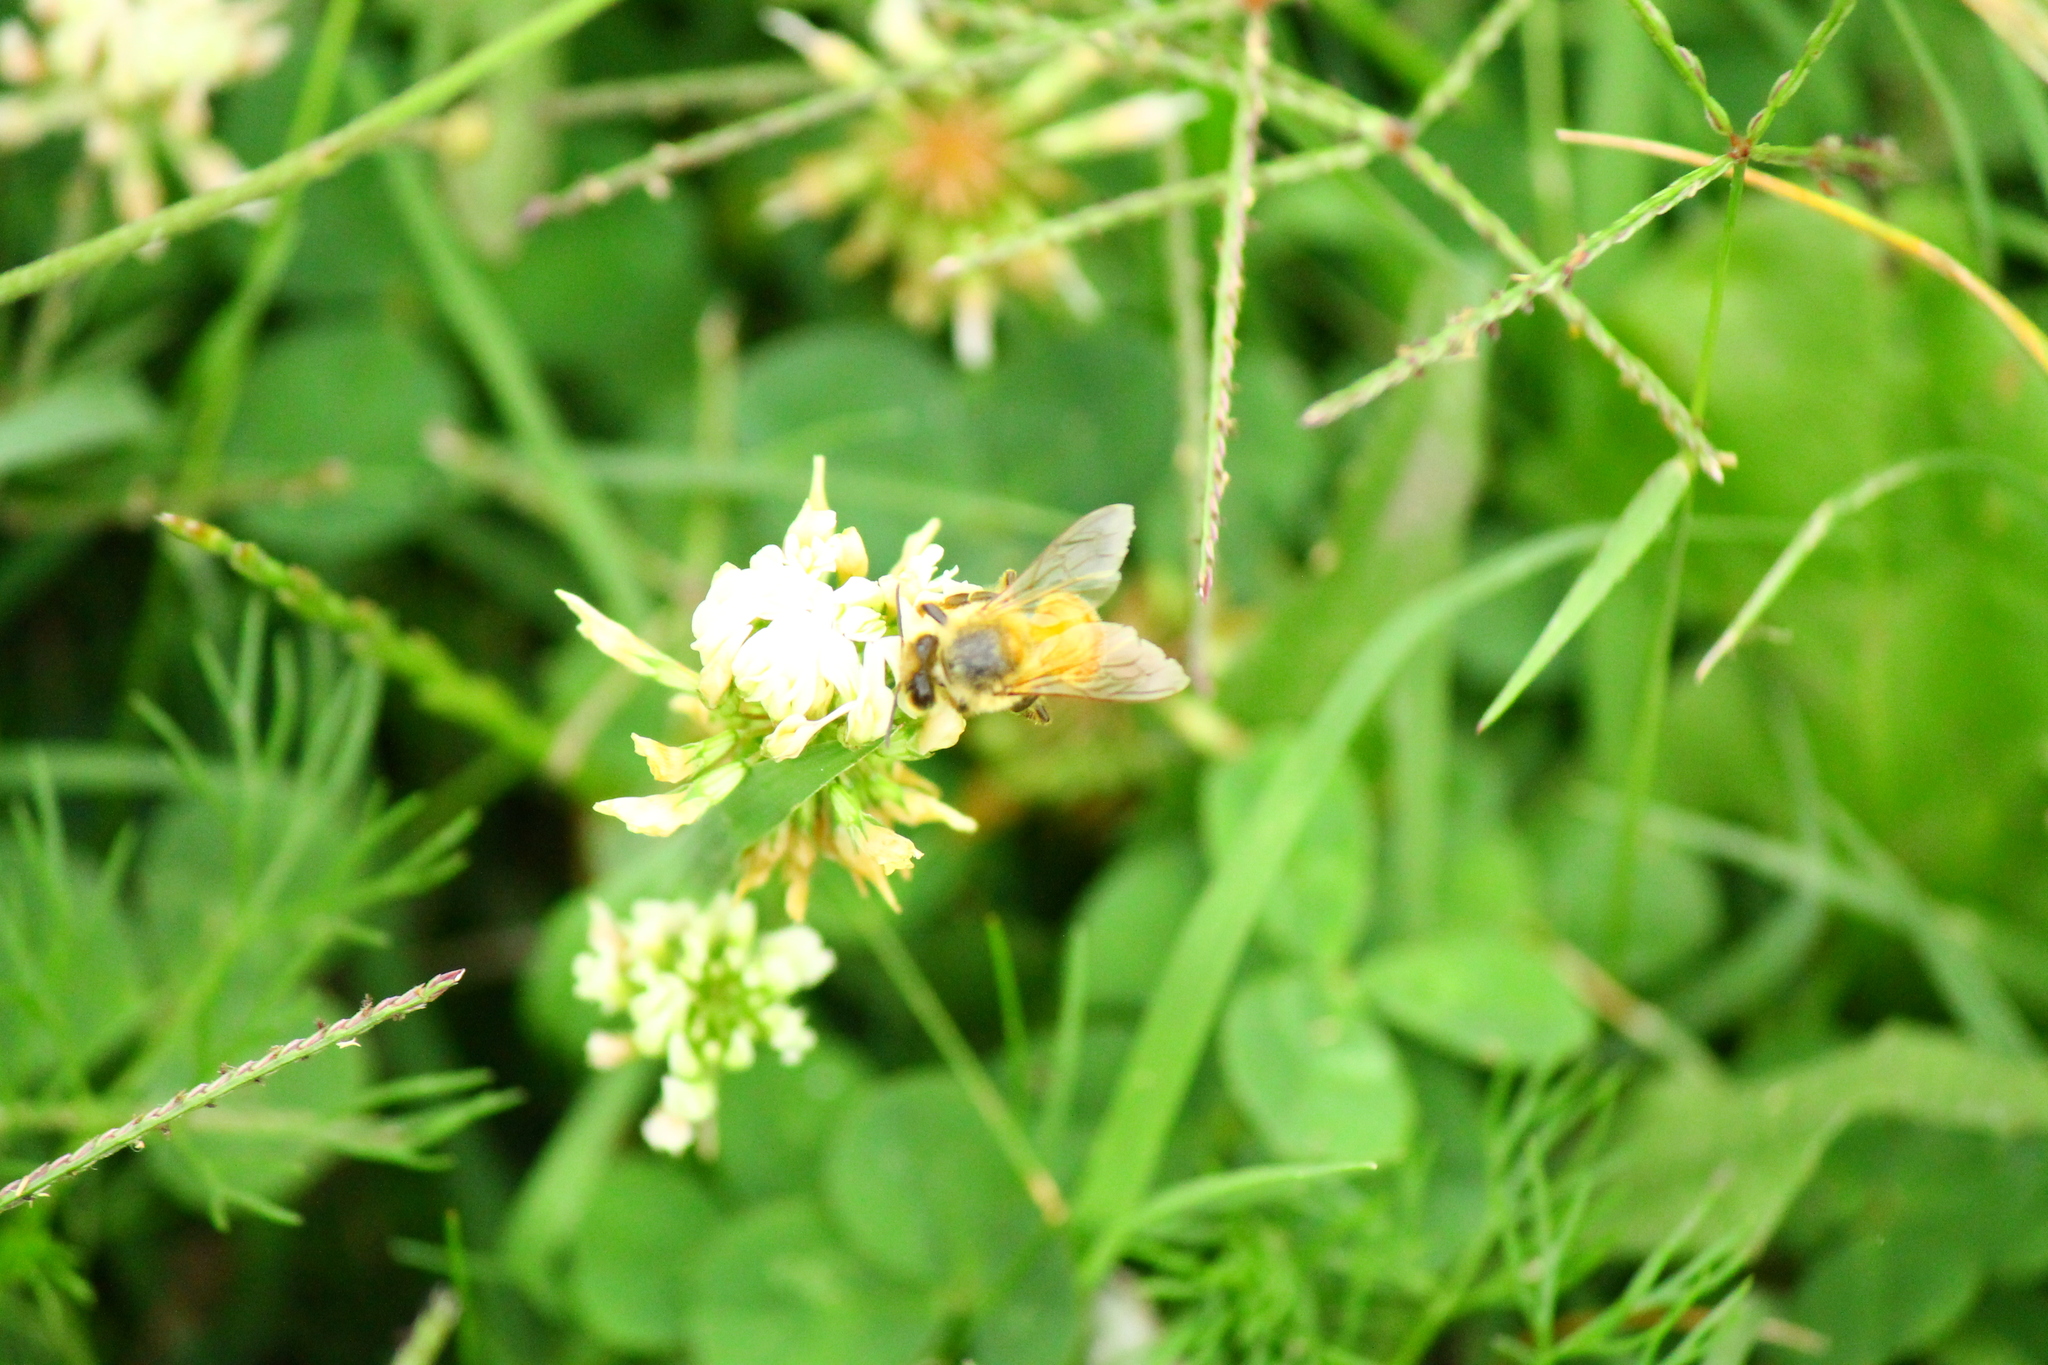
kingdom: Animalia
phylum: Arthropoda
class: Insecta
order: Hymenoptera
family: Apidae
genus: Apis
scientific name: Apis mellifera
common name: Honey bee
